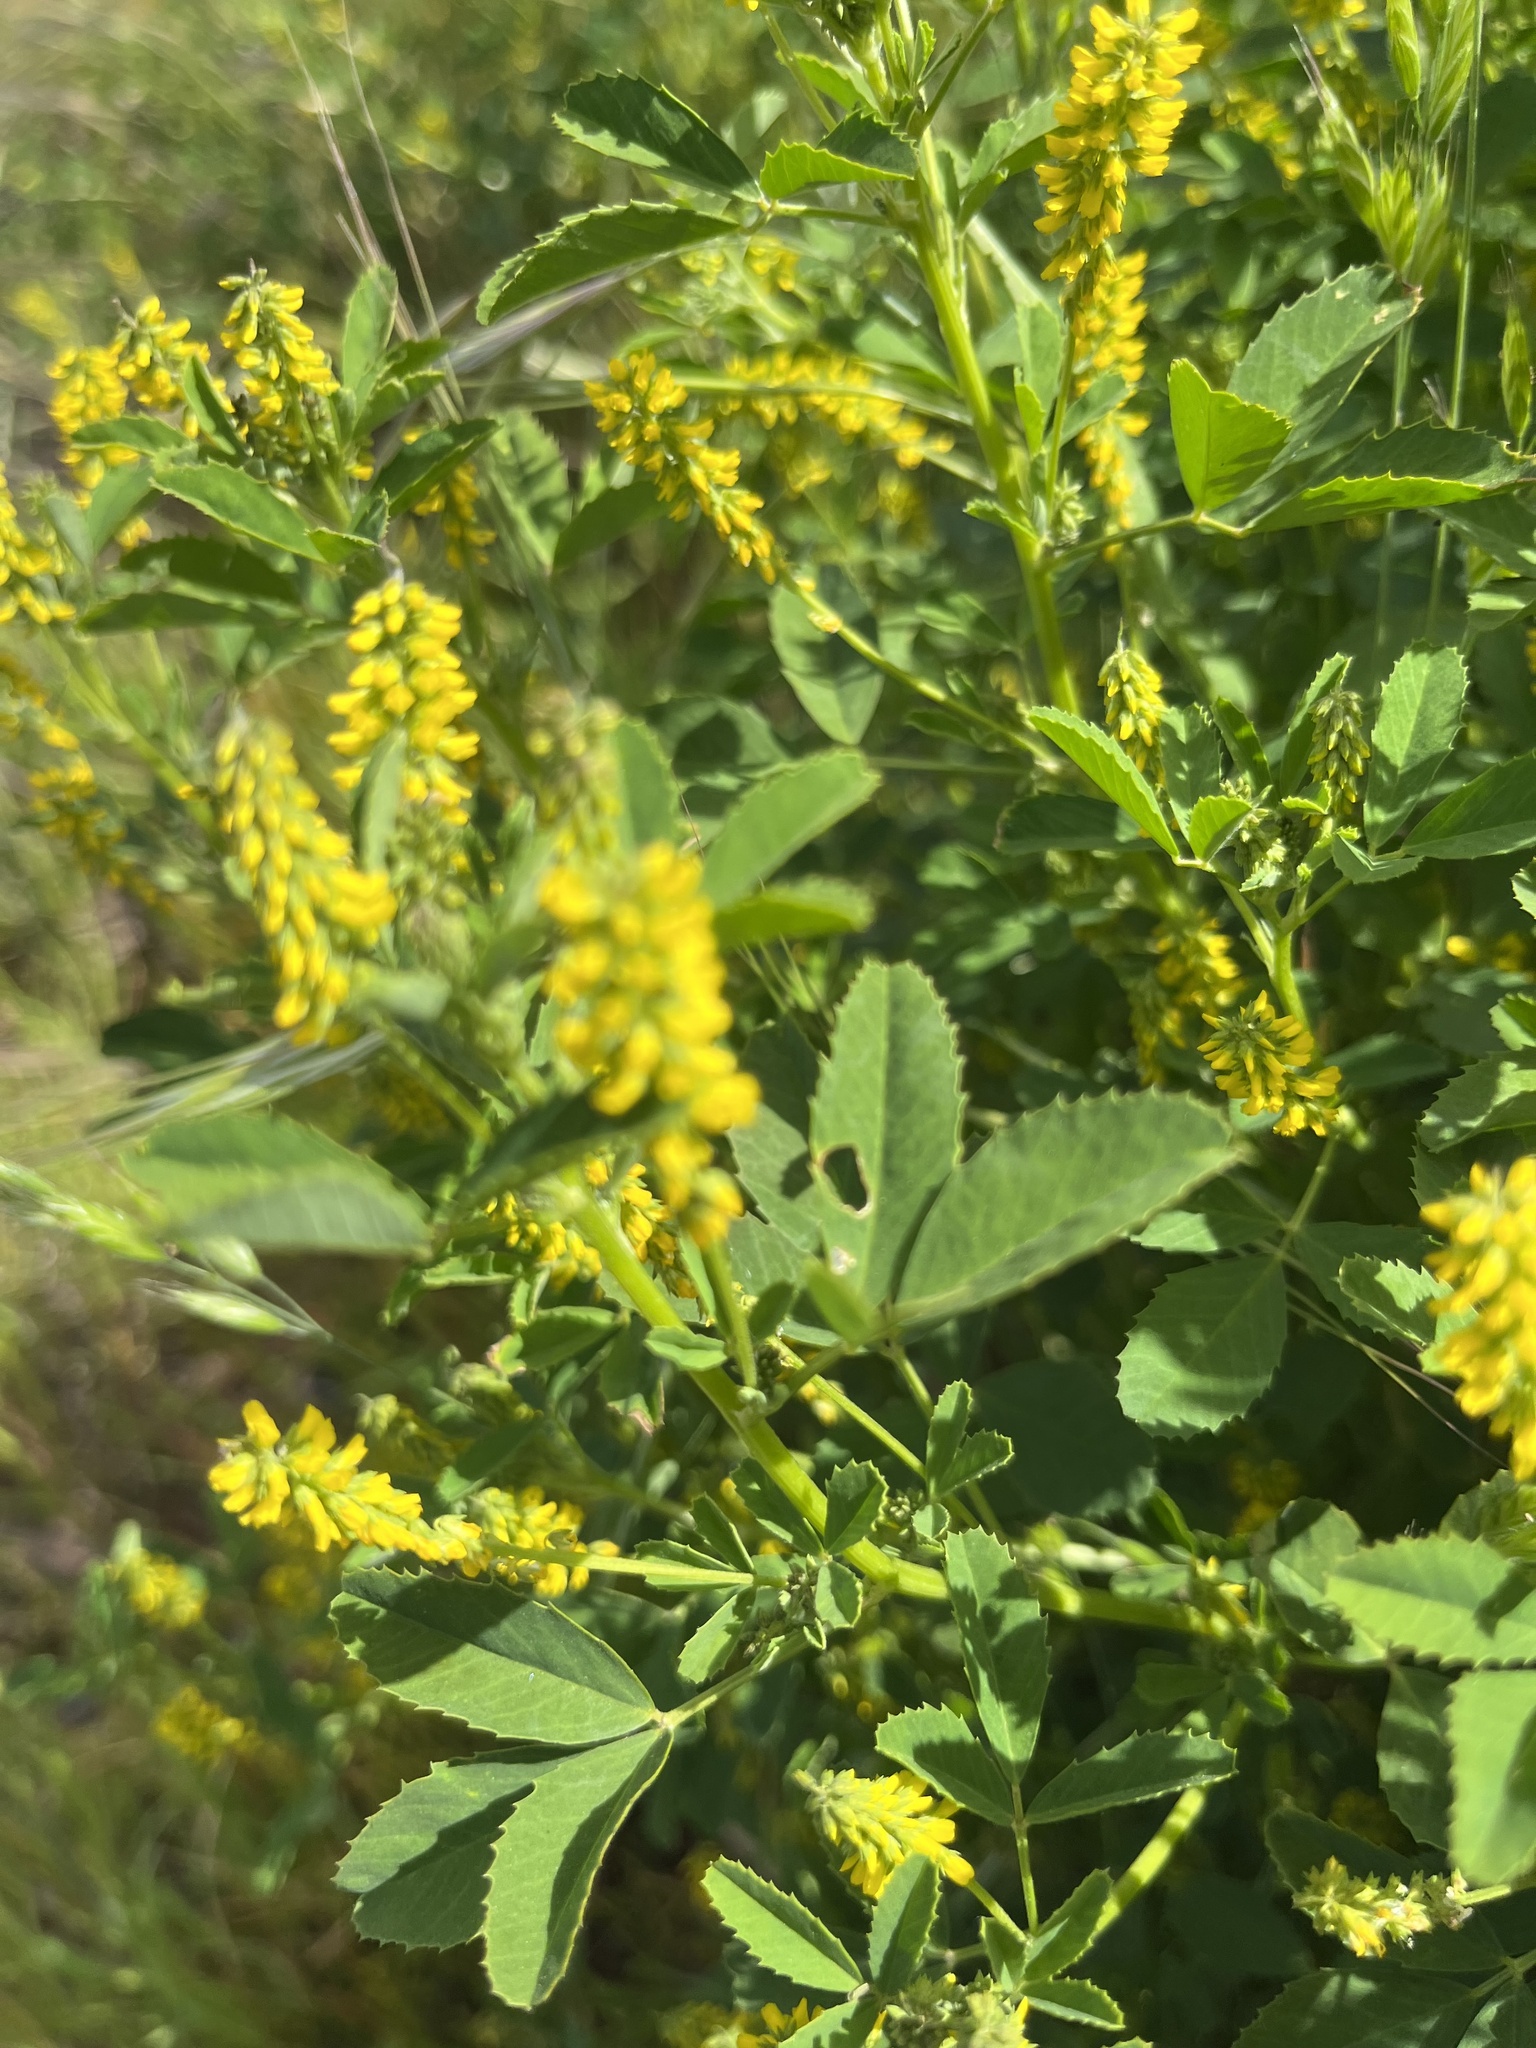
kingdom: Plantae
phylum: Tracheophyta
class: Magnoliopsida
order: Fabales
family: Fabaceae
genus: Melilotus
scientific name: Melilotus indicus
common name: Small melilot
